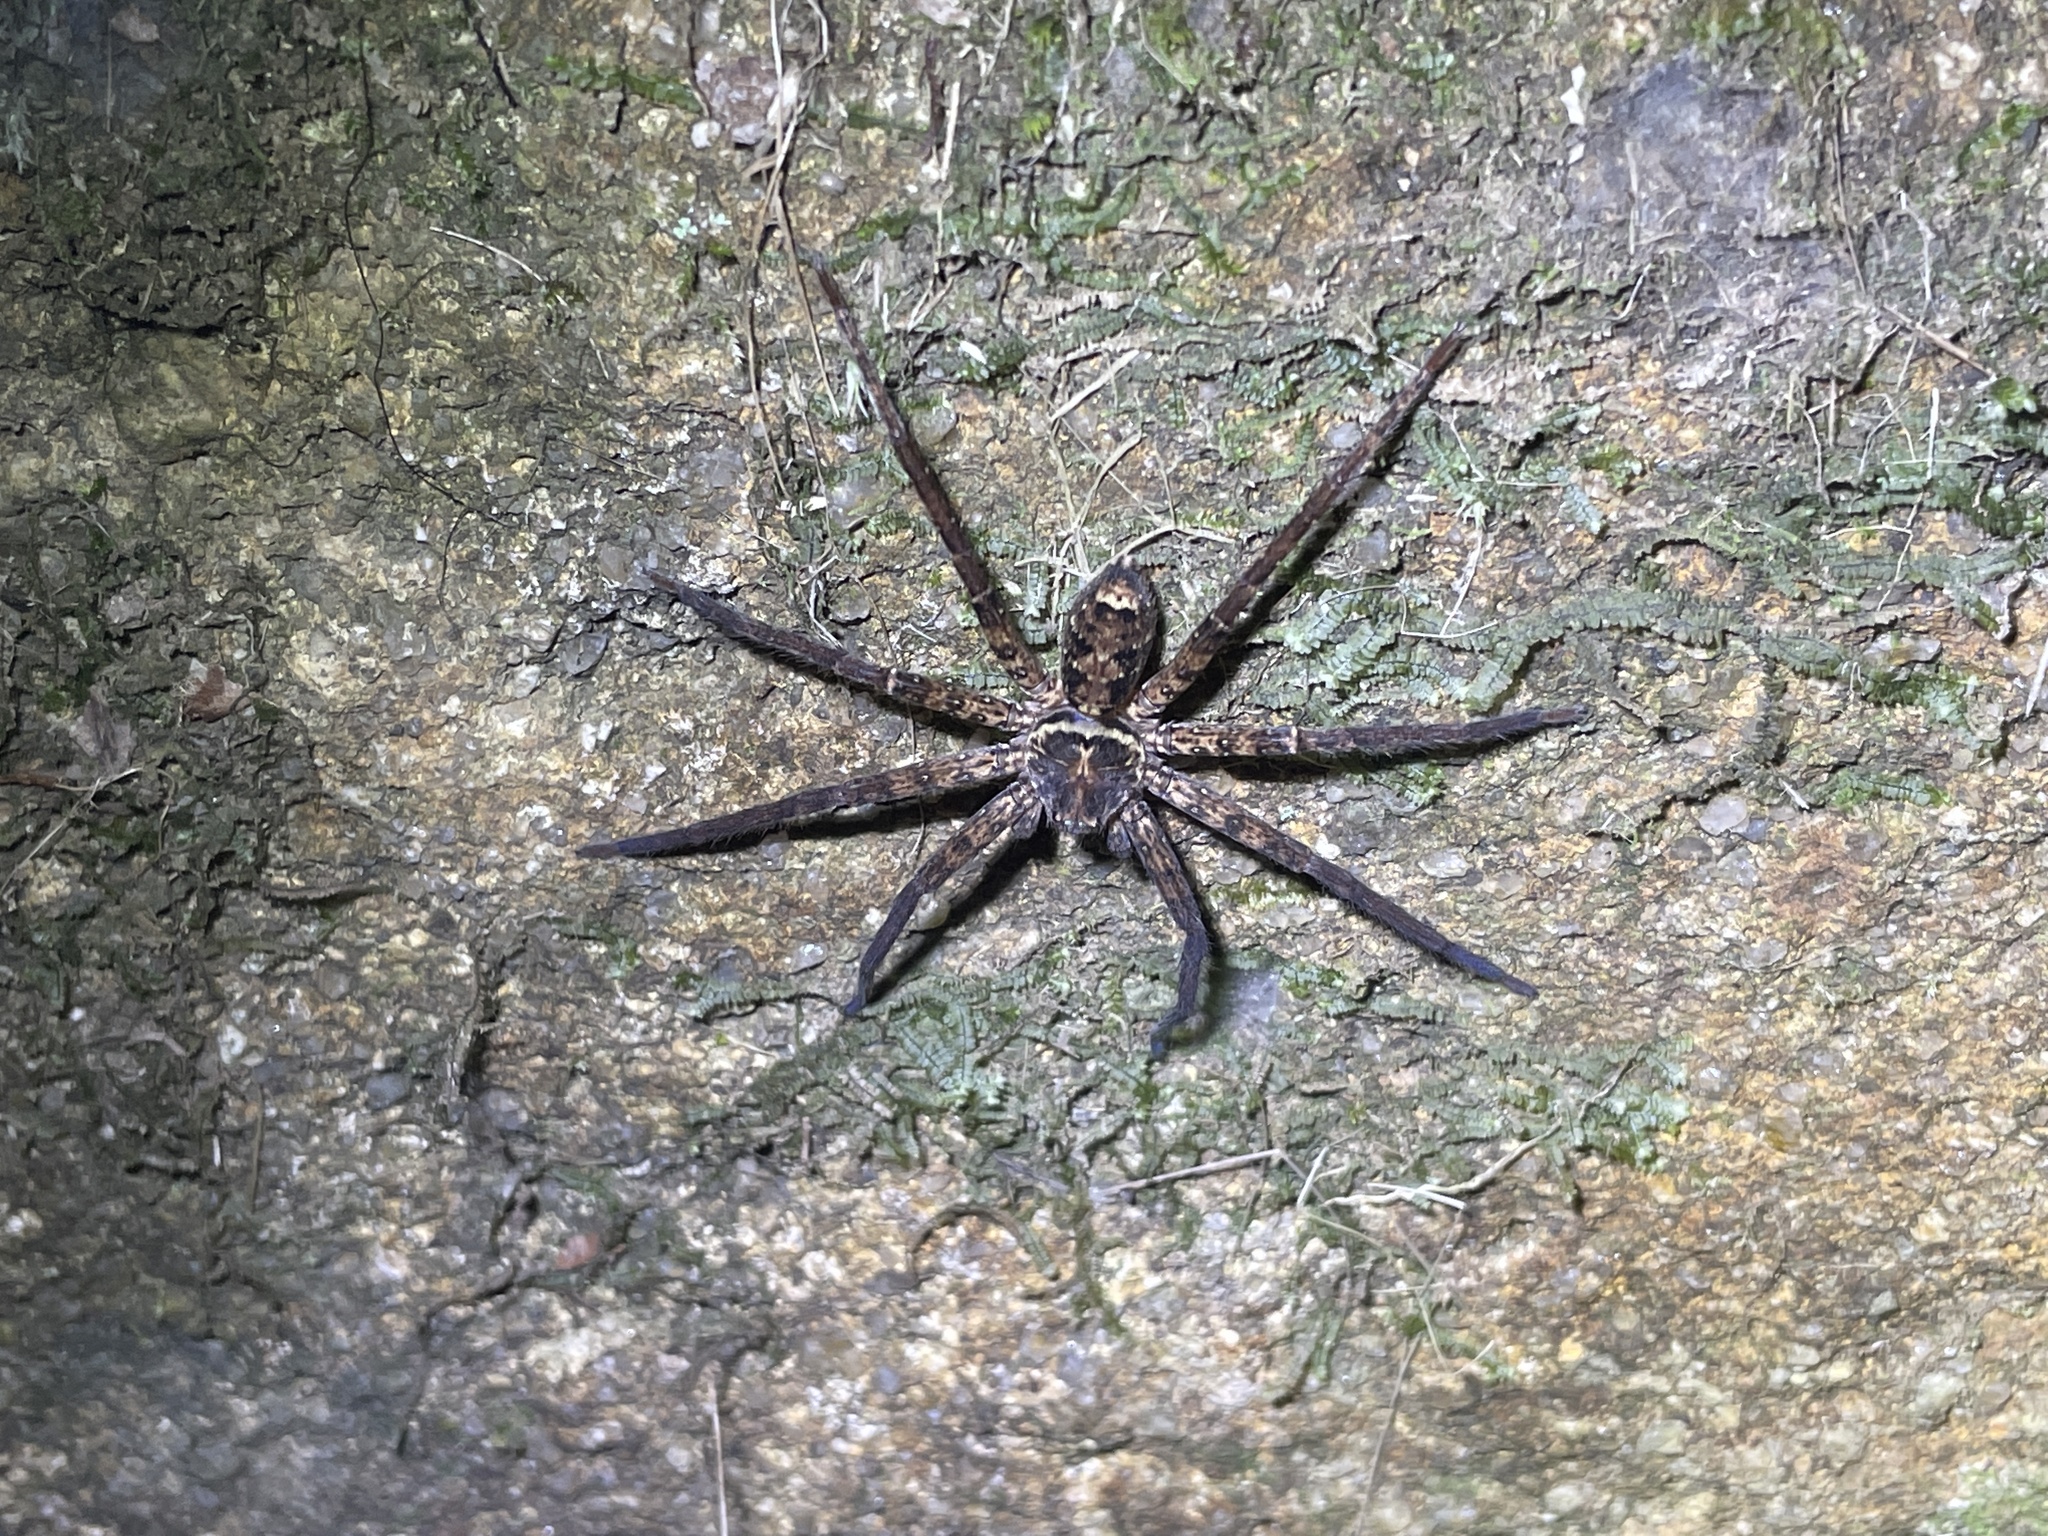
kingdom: Animalia
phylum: Arthropoda
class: Arachnida
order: Araneae
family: Sparassidae
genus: Heteropoda
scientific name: Heteropoda amphora
